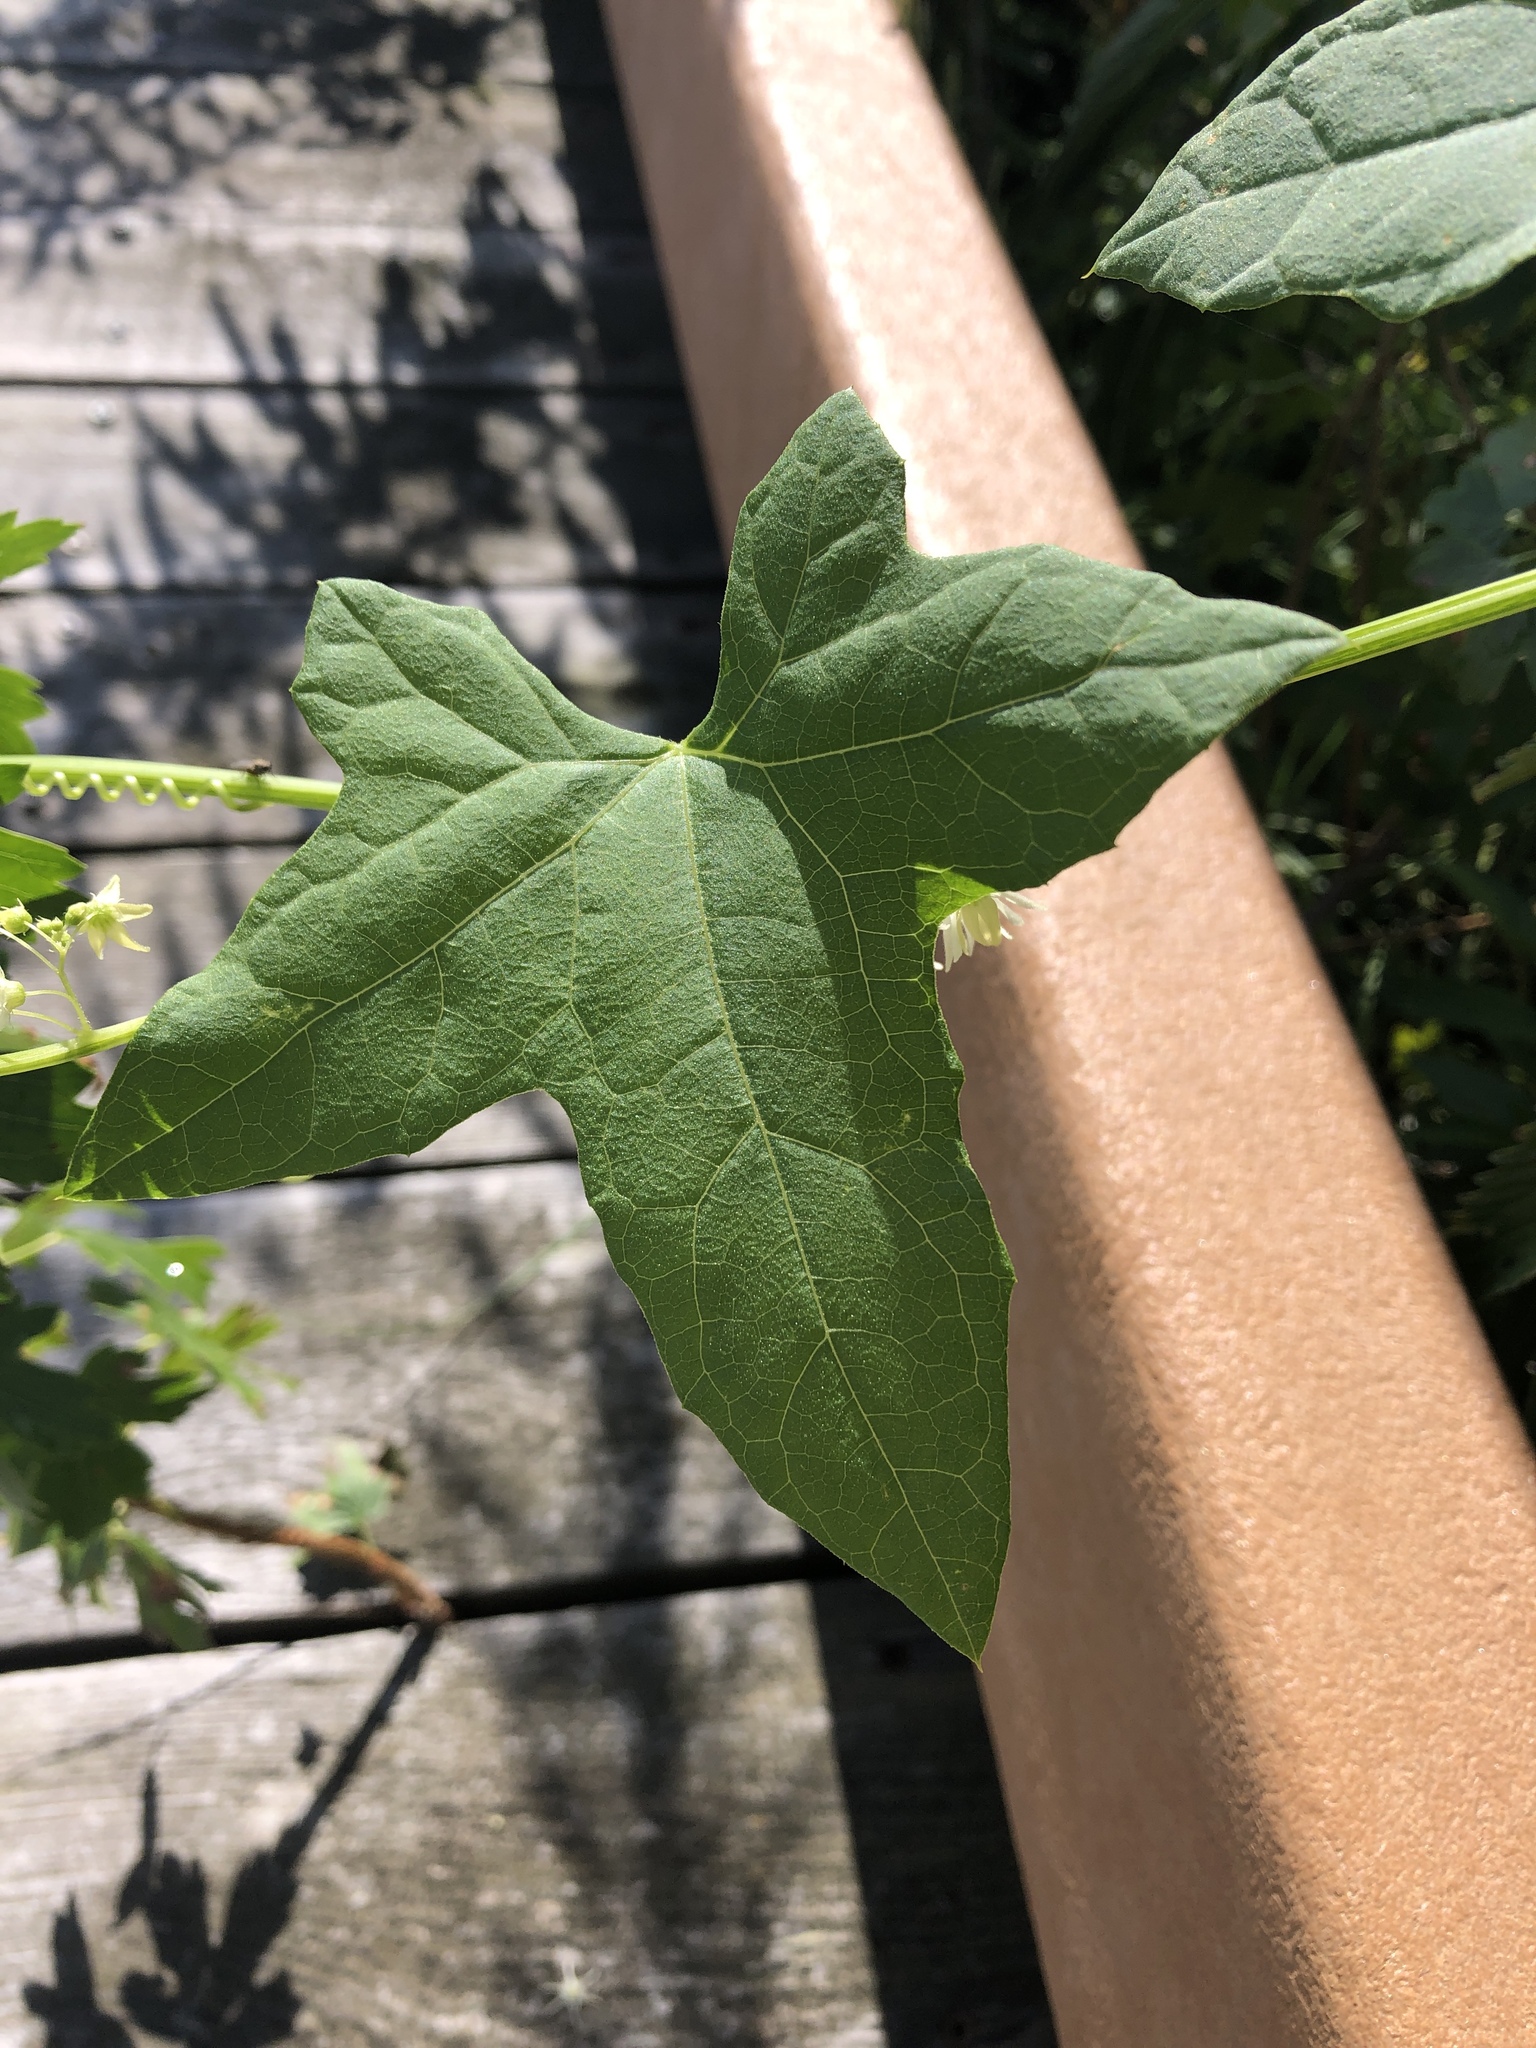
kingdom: Plantae
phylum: Tracheophyta
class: Magnoliopsida
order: Cucurbitales
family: Cucurbitaceae
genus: Echinocystis
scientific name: Echinocystis lobata
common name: Wild cucumber
